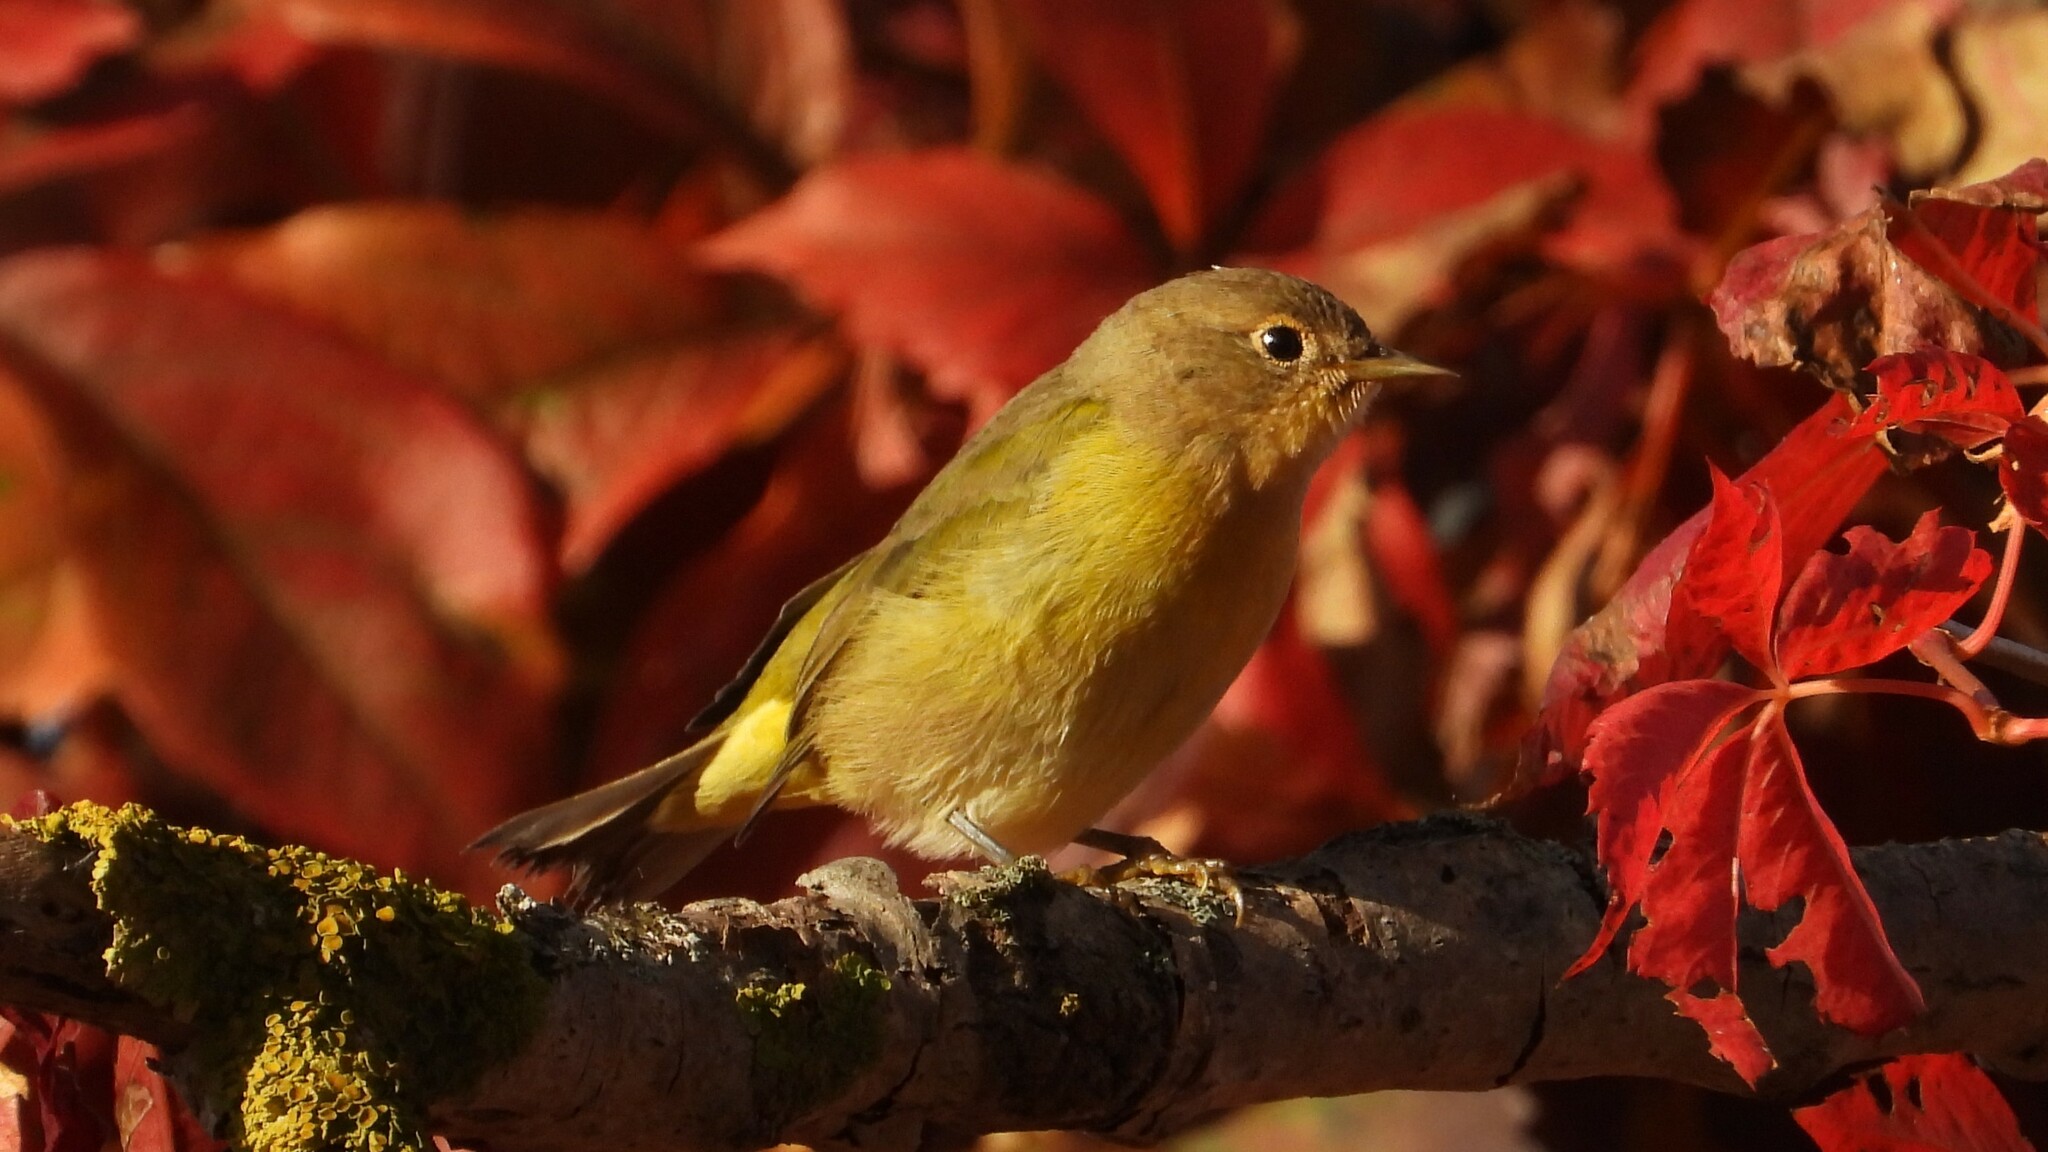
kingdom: Animalia
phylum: Chordata
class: Aves
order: Passeriformes
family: Parulidae
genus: Leiothlypis
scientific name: Leiothlypis ruficapilla
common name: Nashville warbler
